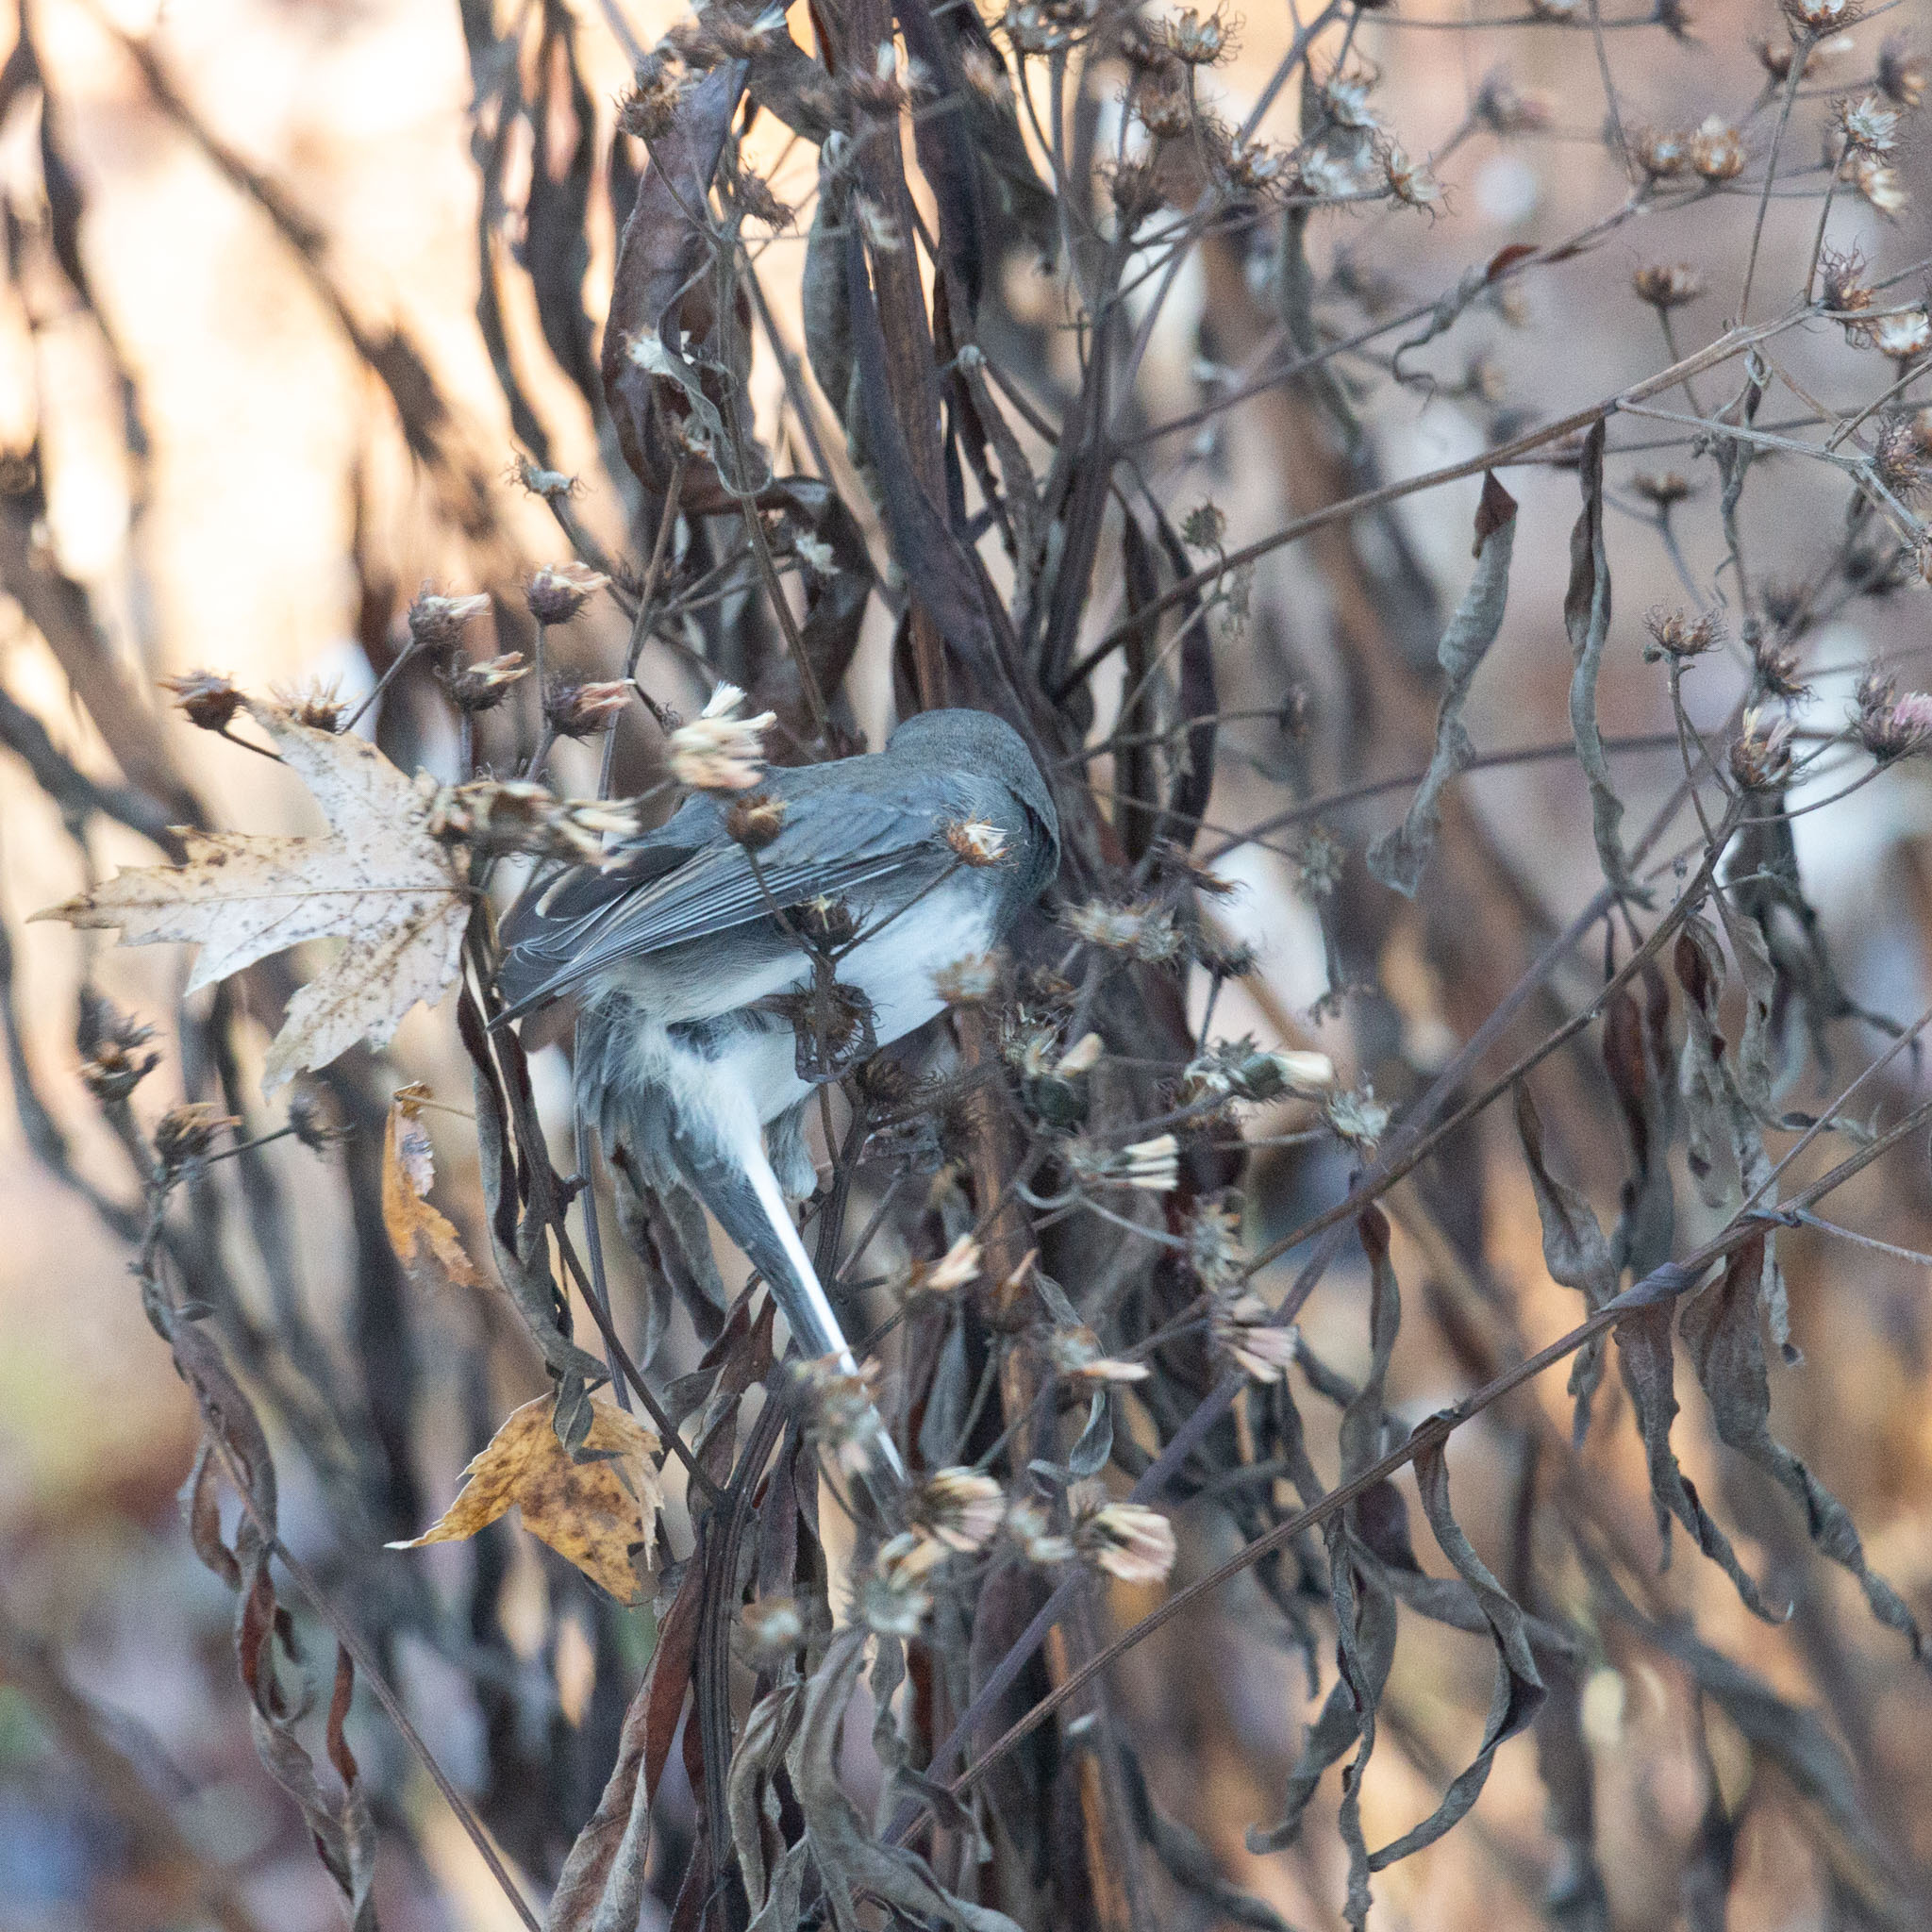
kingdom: Animalia
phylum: Chordata
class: Aves
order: Passeriformes
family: Passerellidae
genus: Junco
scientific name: Junco hyemalis
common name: Dark-eyed junco
